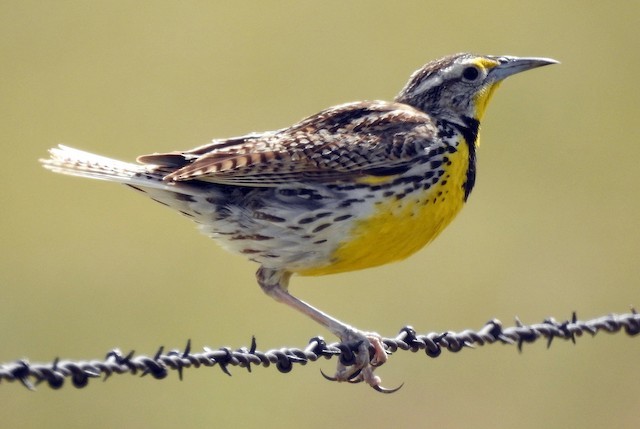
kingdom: Animalia
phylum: Chordata
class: Aves
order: Passeriformes
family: Icteridae
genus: Sturnella
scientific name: Sturnella neglecta
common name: Western meadowlark
